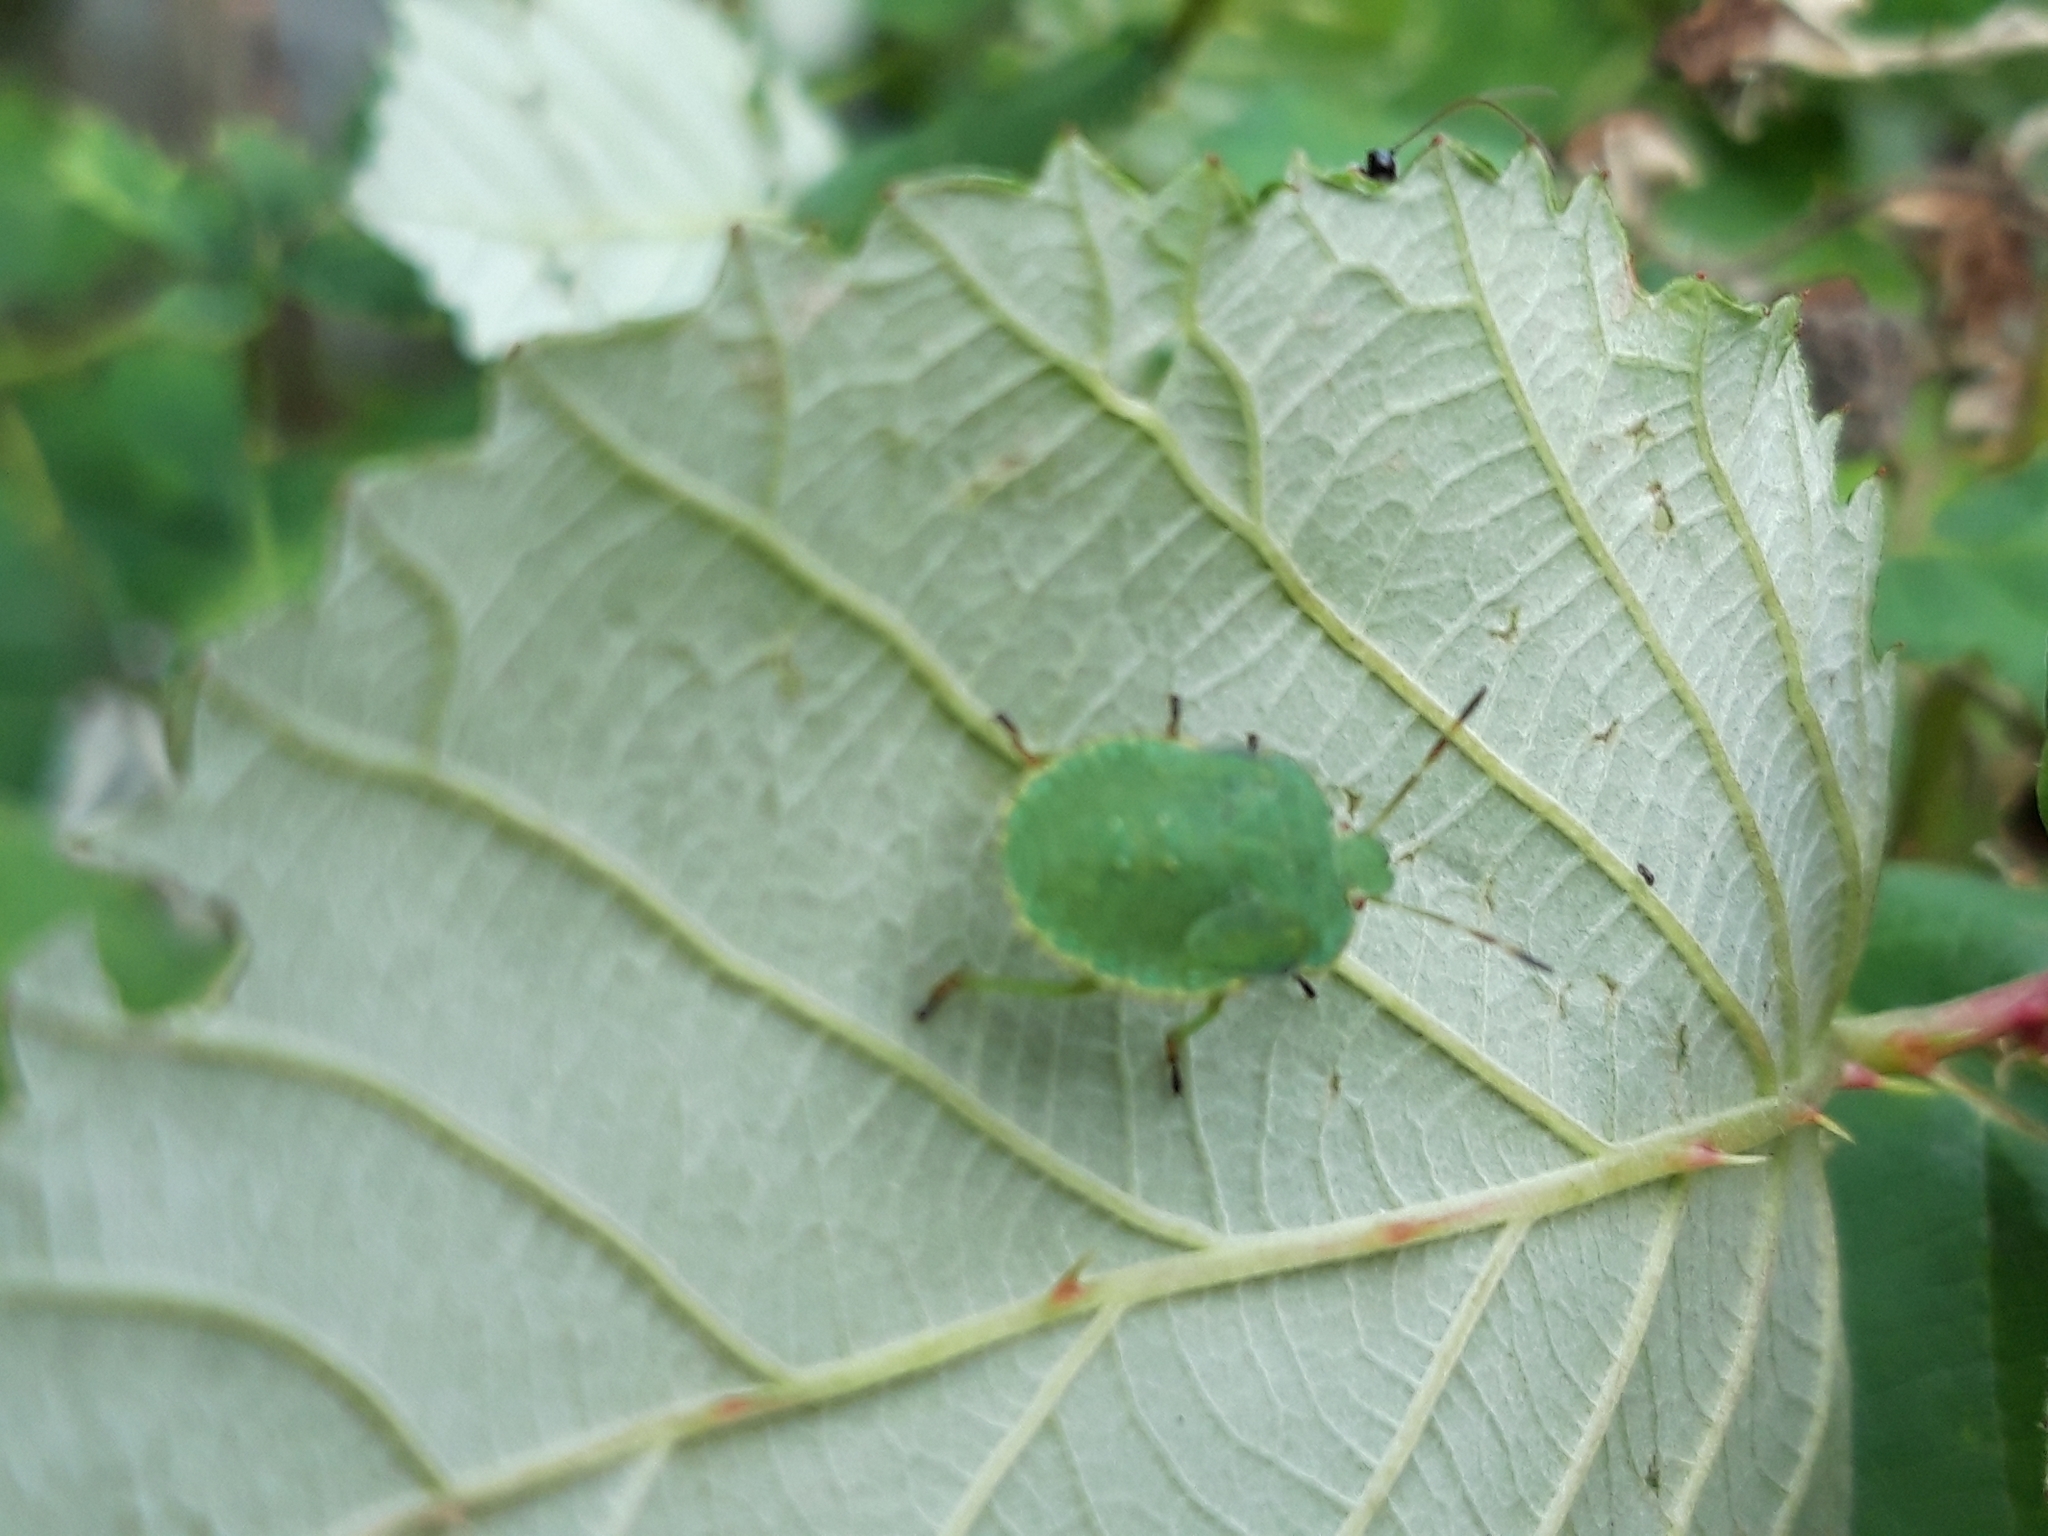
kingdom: Animalia
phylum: Arthropoda
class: Insecta
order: Hemiptera
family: Pentatomidae
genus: Palomena
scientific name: Palomena prasina
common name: Green shieldbug
